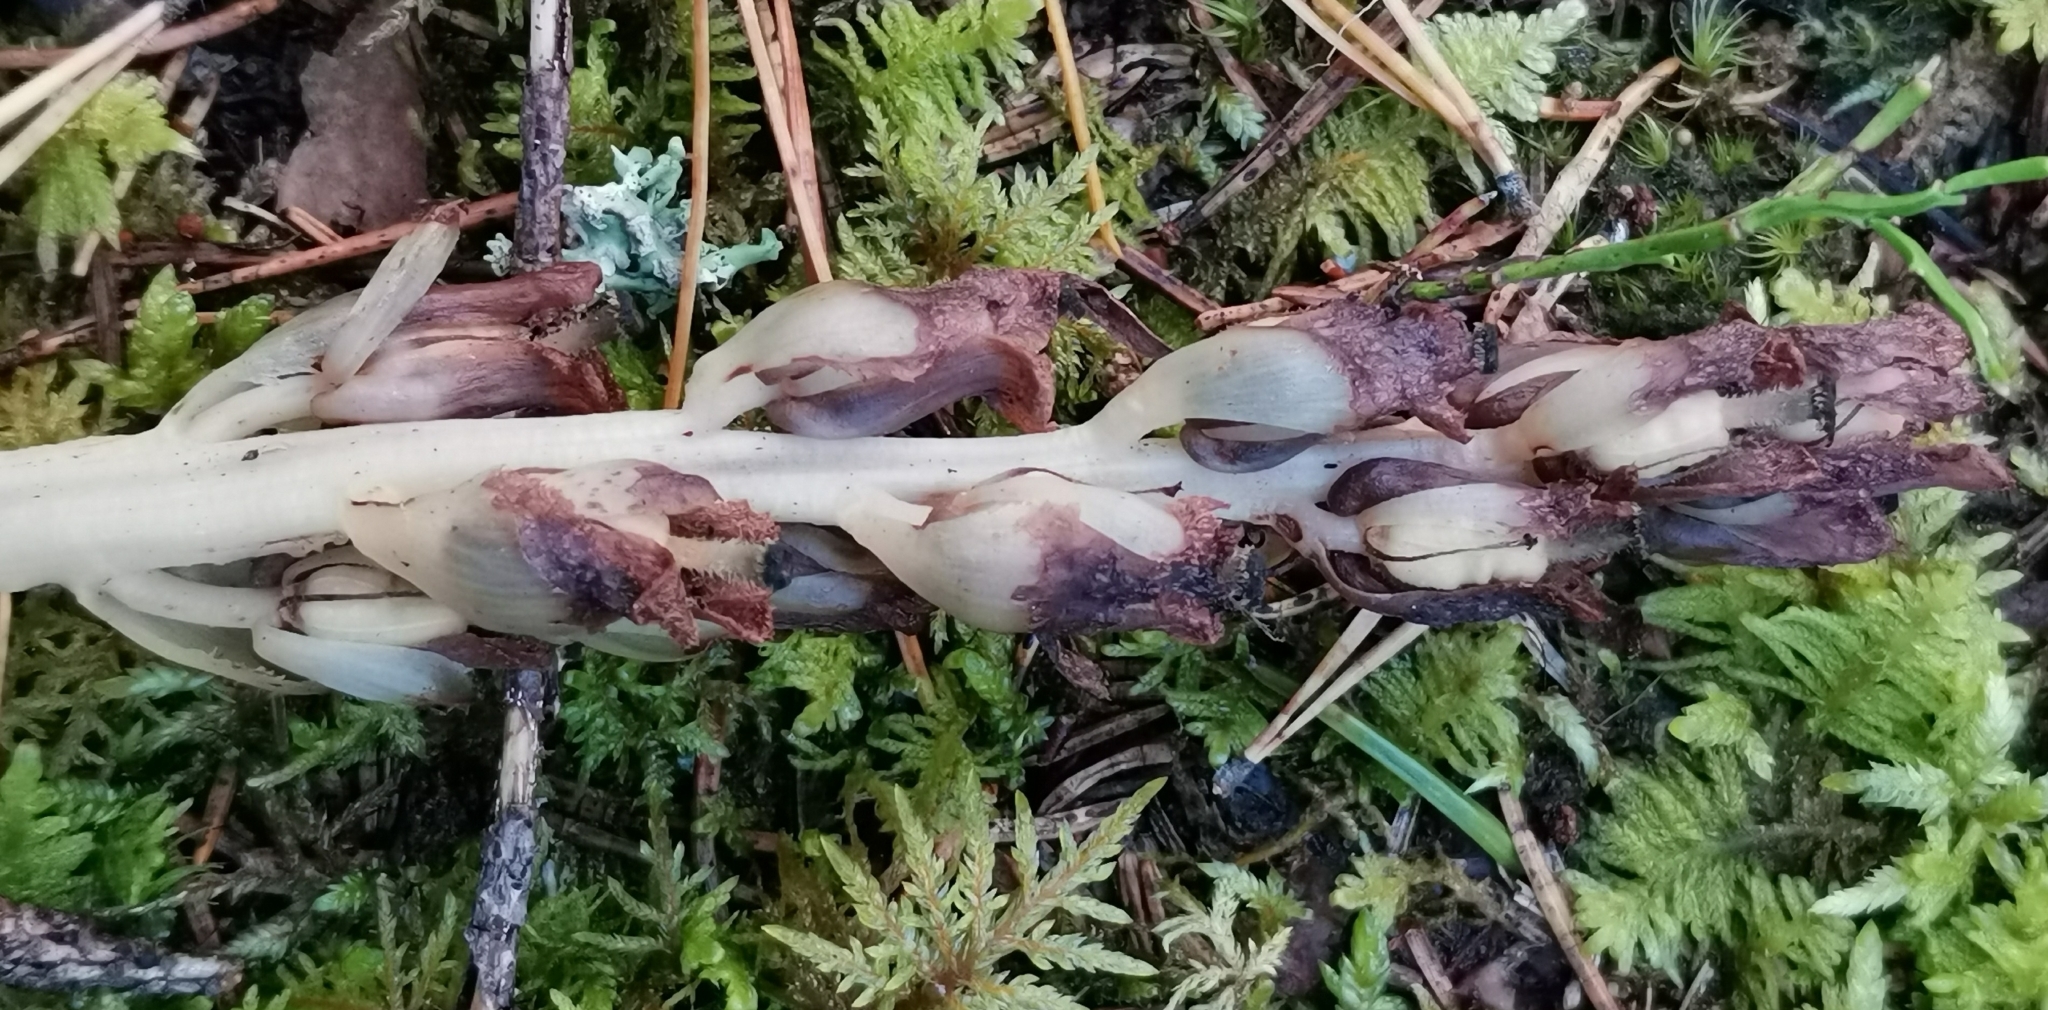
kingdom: Plantae
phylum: Tracheophyta
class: Magnoliopsida
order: Ericales
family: Ericaceae
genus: Hypopitys
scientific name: Hypopitys monotropa
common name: Yellow bird's-nest
